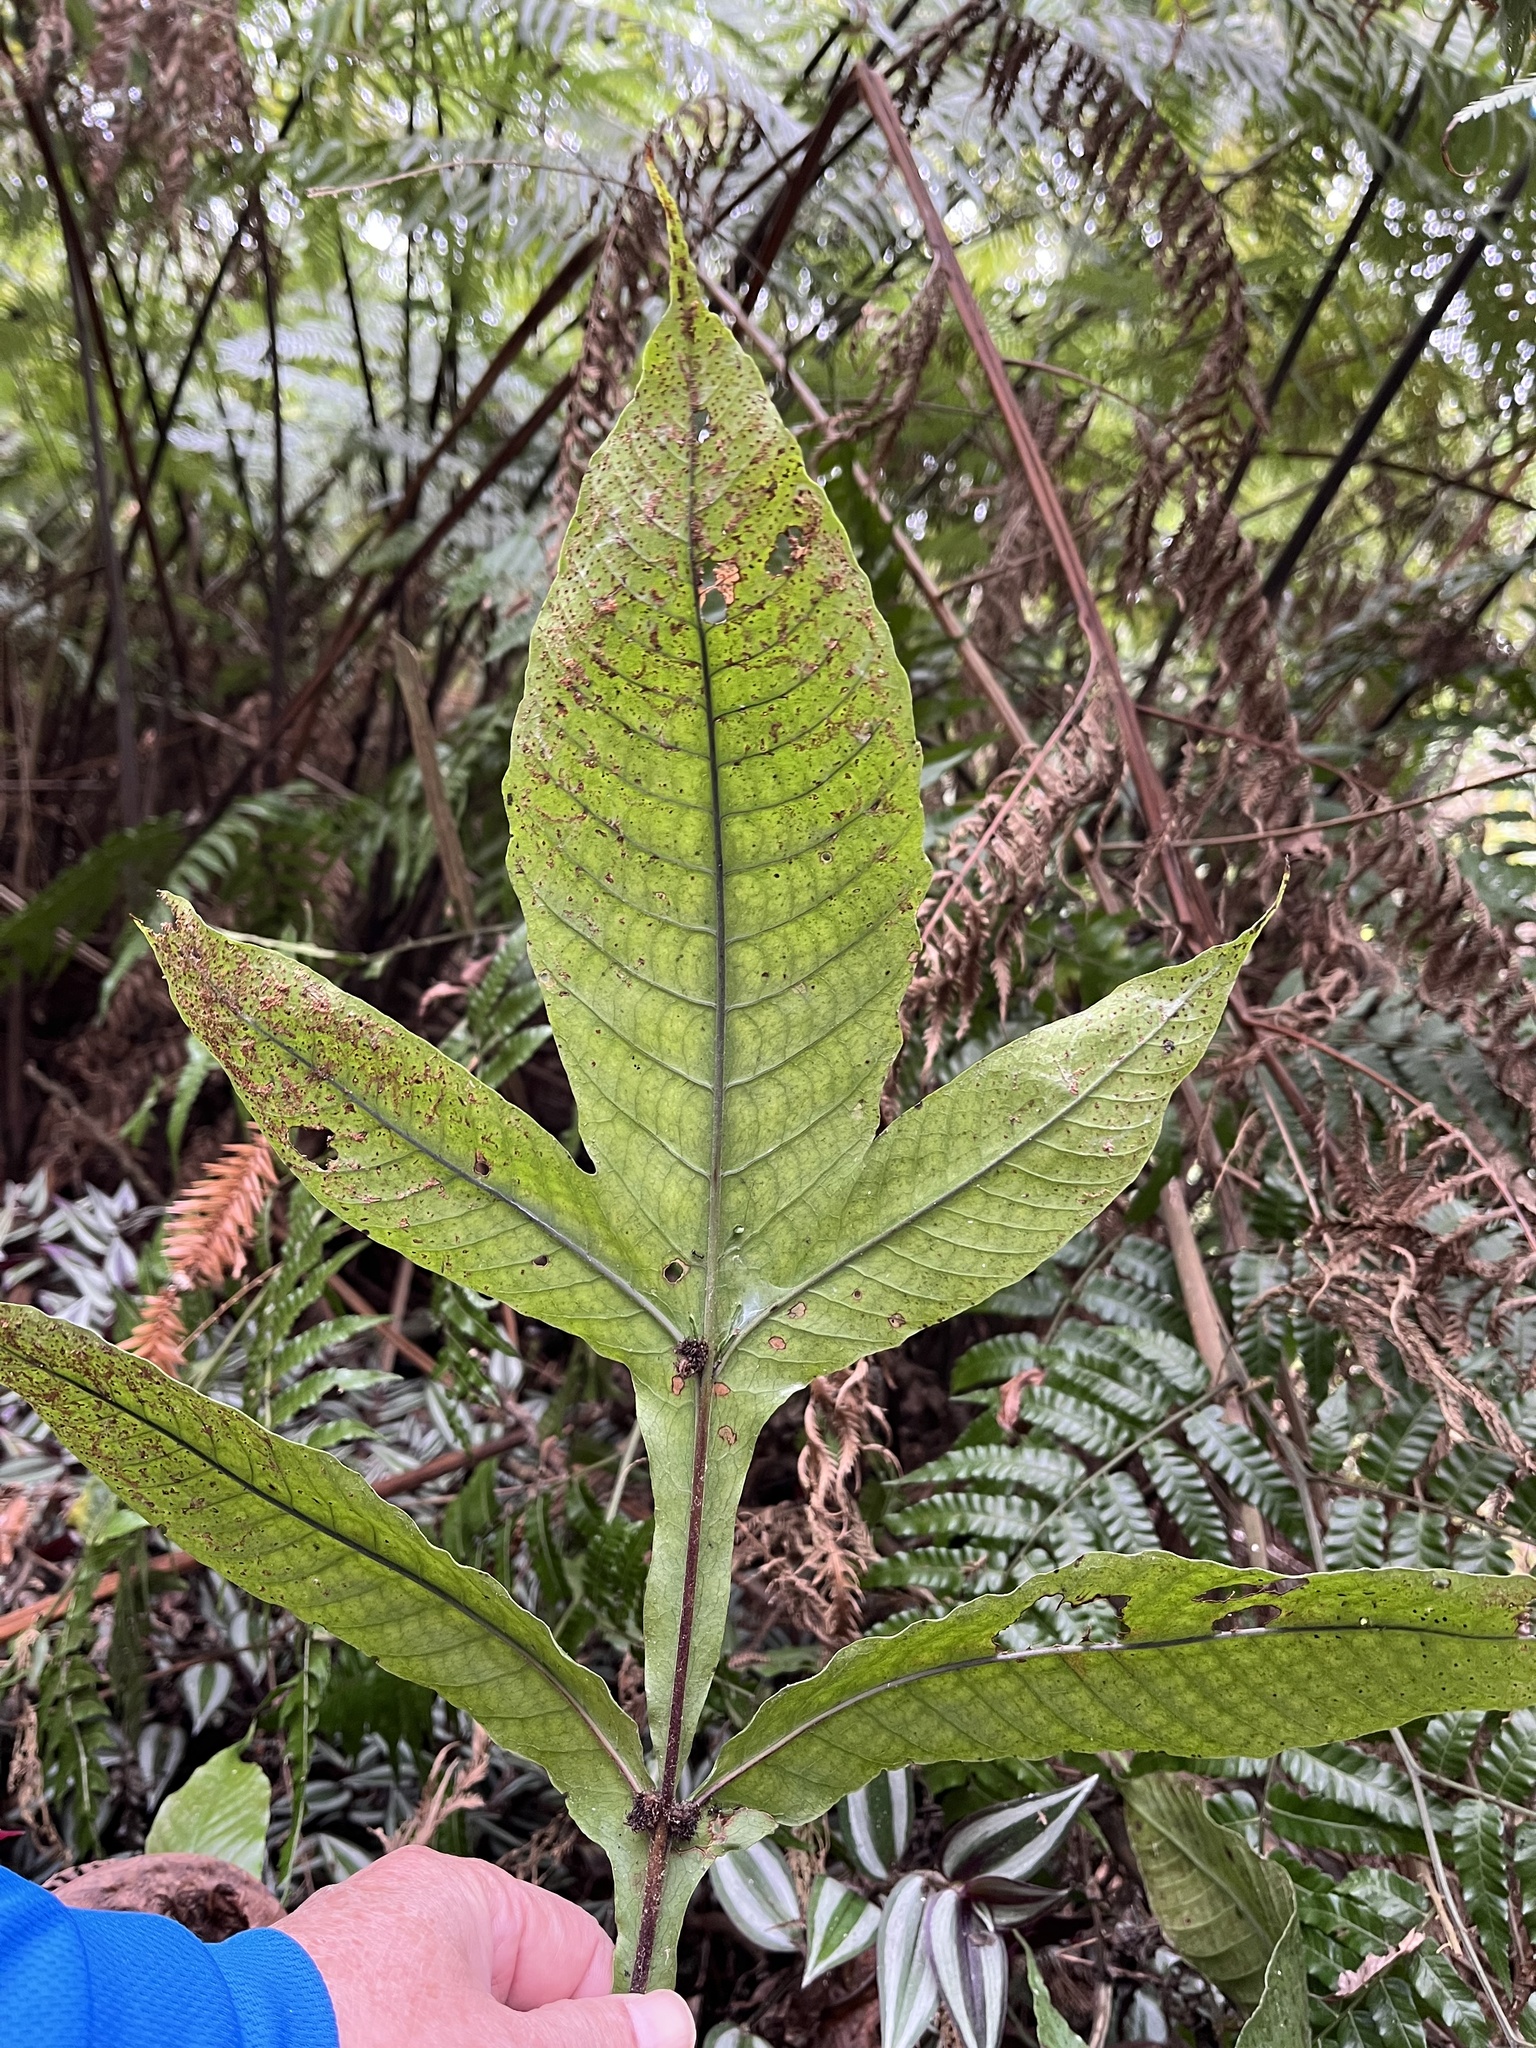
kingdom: Plantae
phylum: Tracheophyta
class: Polypodiopsida
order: Polypodiales
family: Tectariaceae
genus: Tectaria
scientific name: Tectaria fauriei
